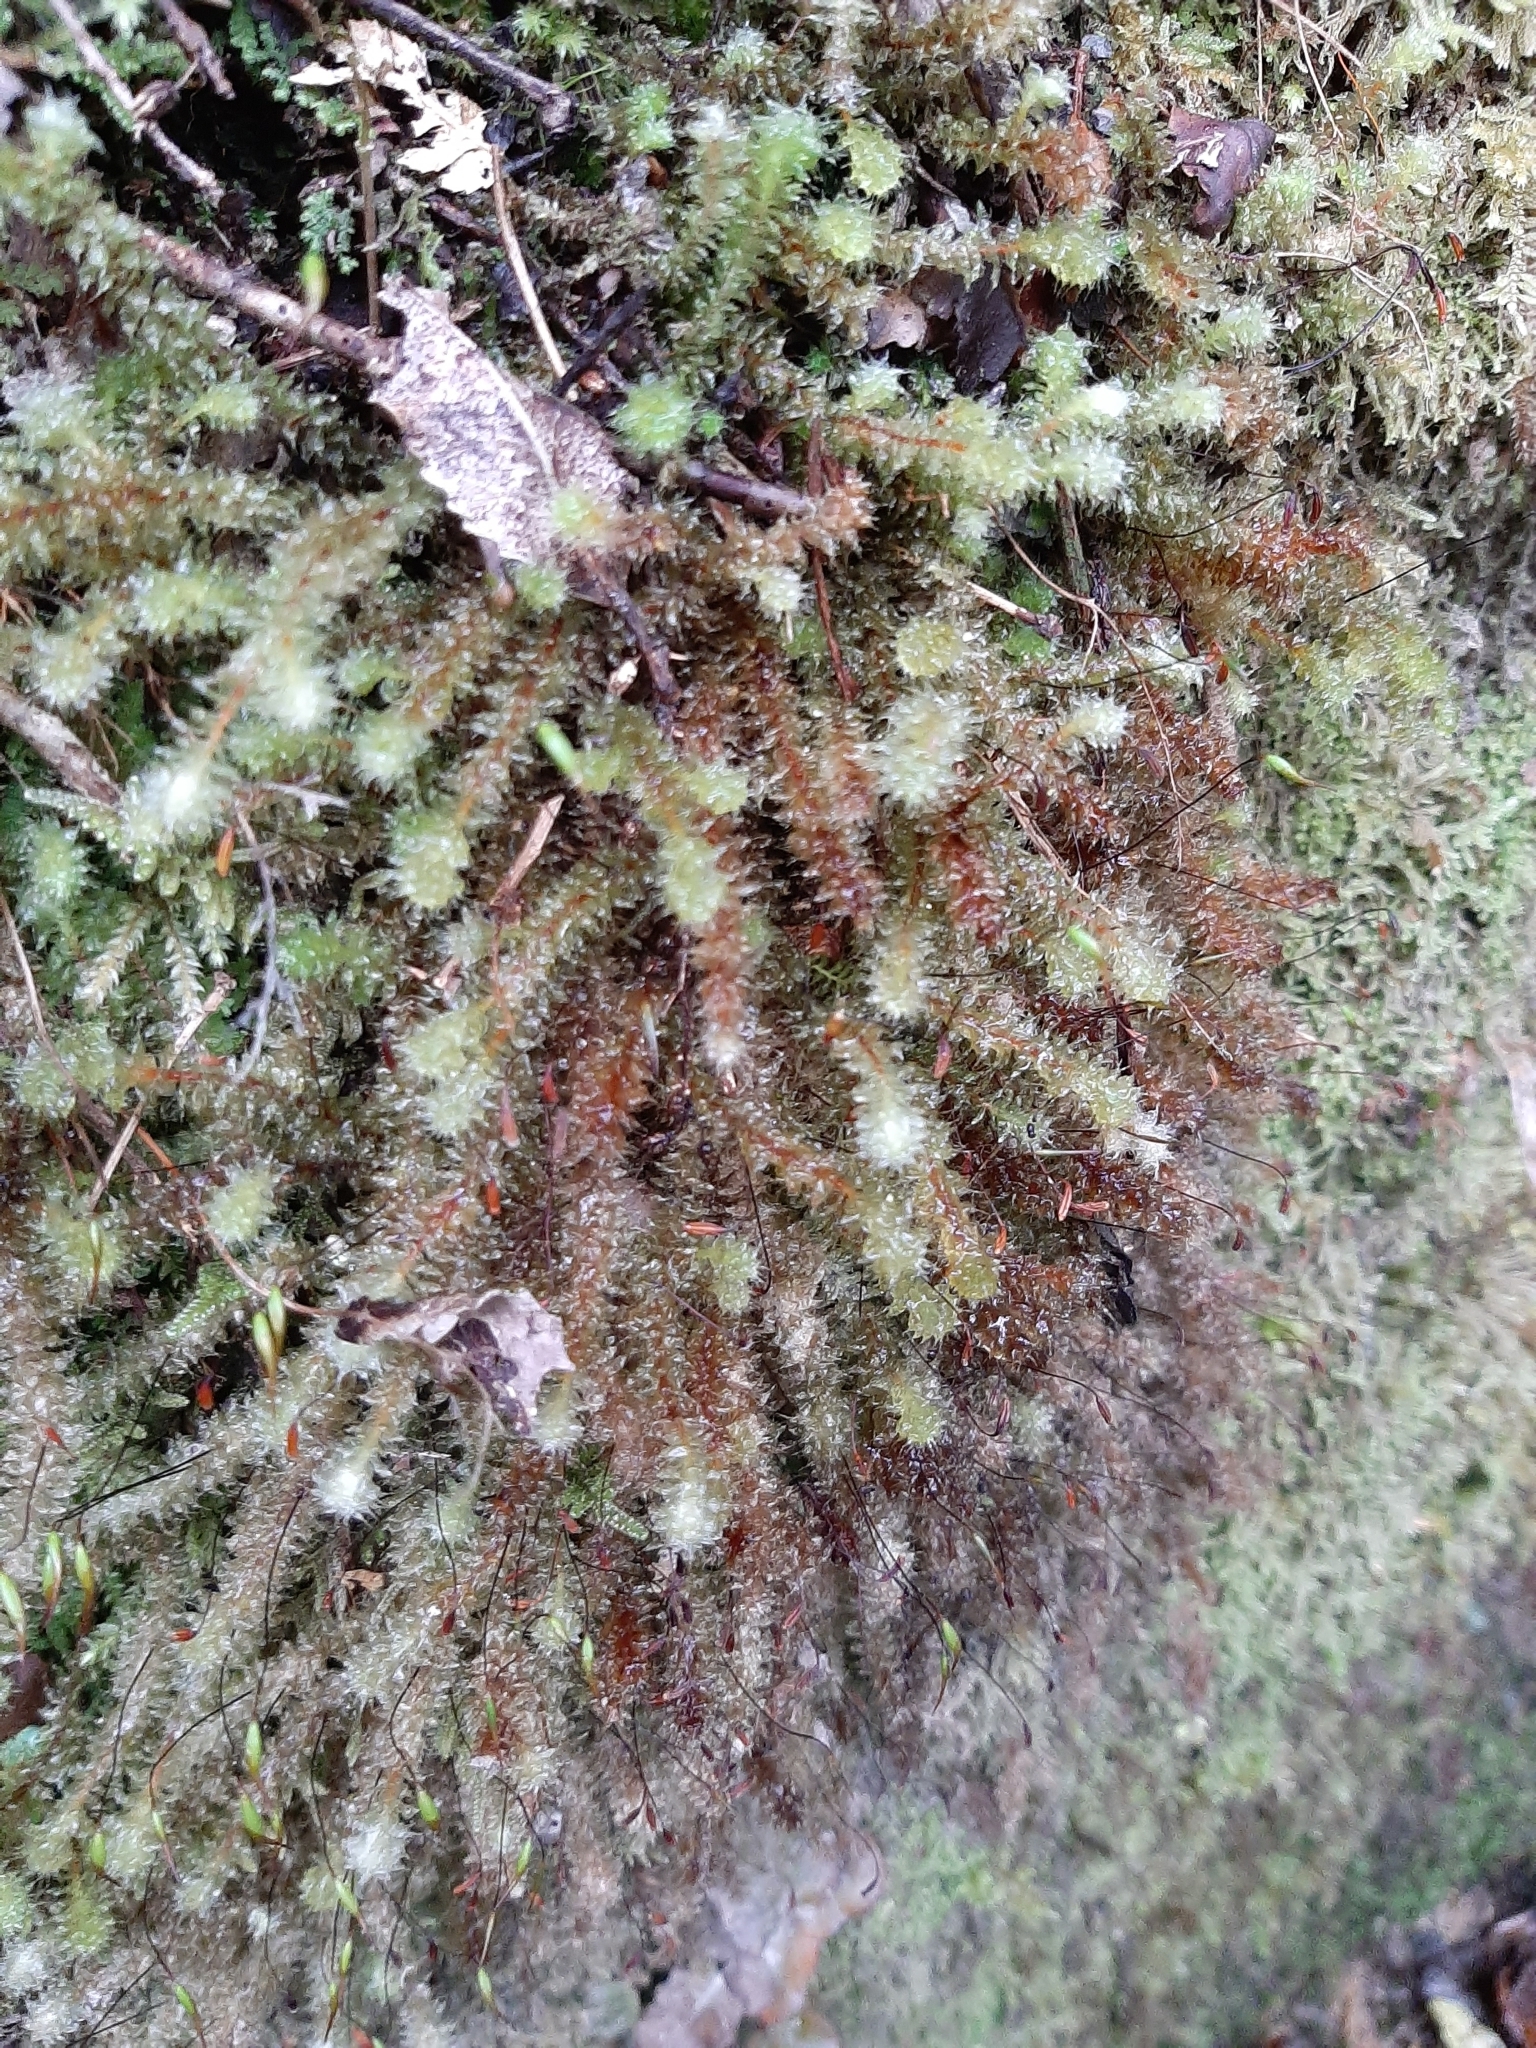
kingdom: Plantae
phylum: Bryophyta
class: Bryopsida
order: Ptychomniales
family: Ptychomniaceae
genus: Ptychomnion
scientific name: Ptychomnion aciculare
